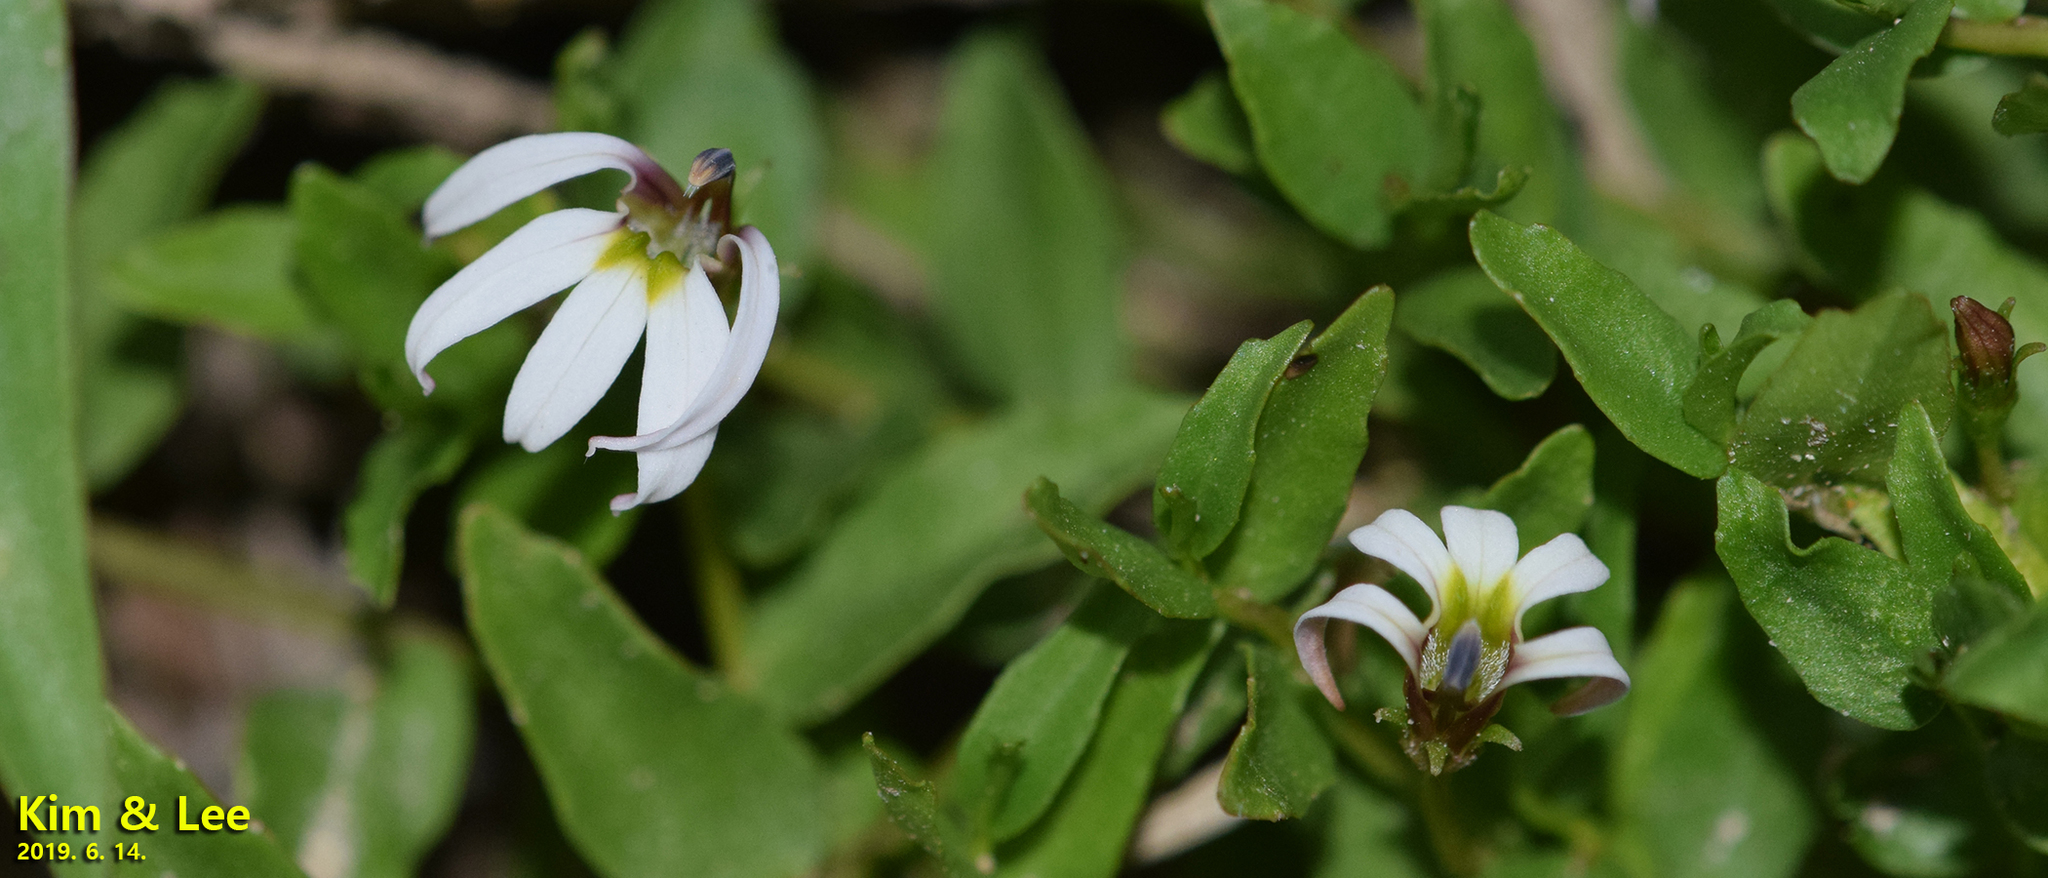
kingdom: Plantae
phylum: Tracheophyta
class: Magnoliopsida
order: Asterales
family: Campanulaceae
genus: Lobelia
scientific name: Lobelia chinensis
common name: Chinese lobelia
